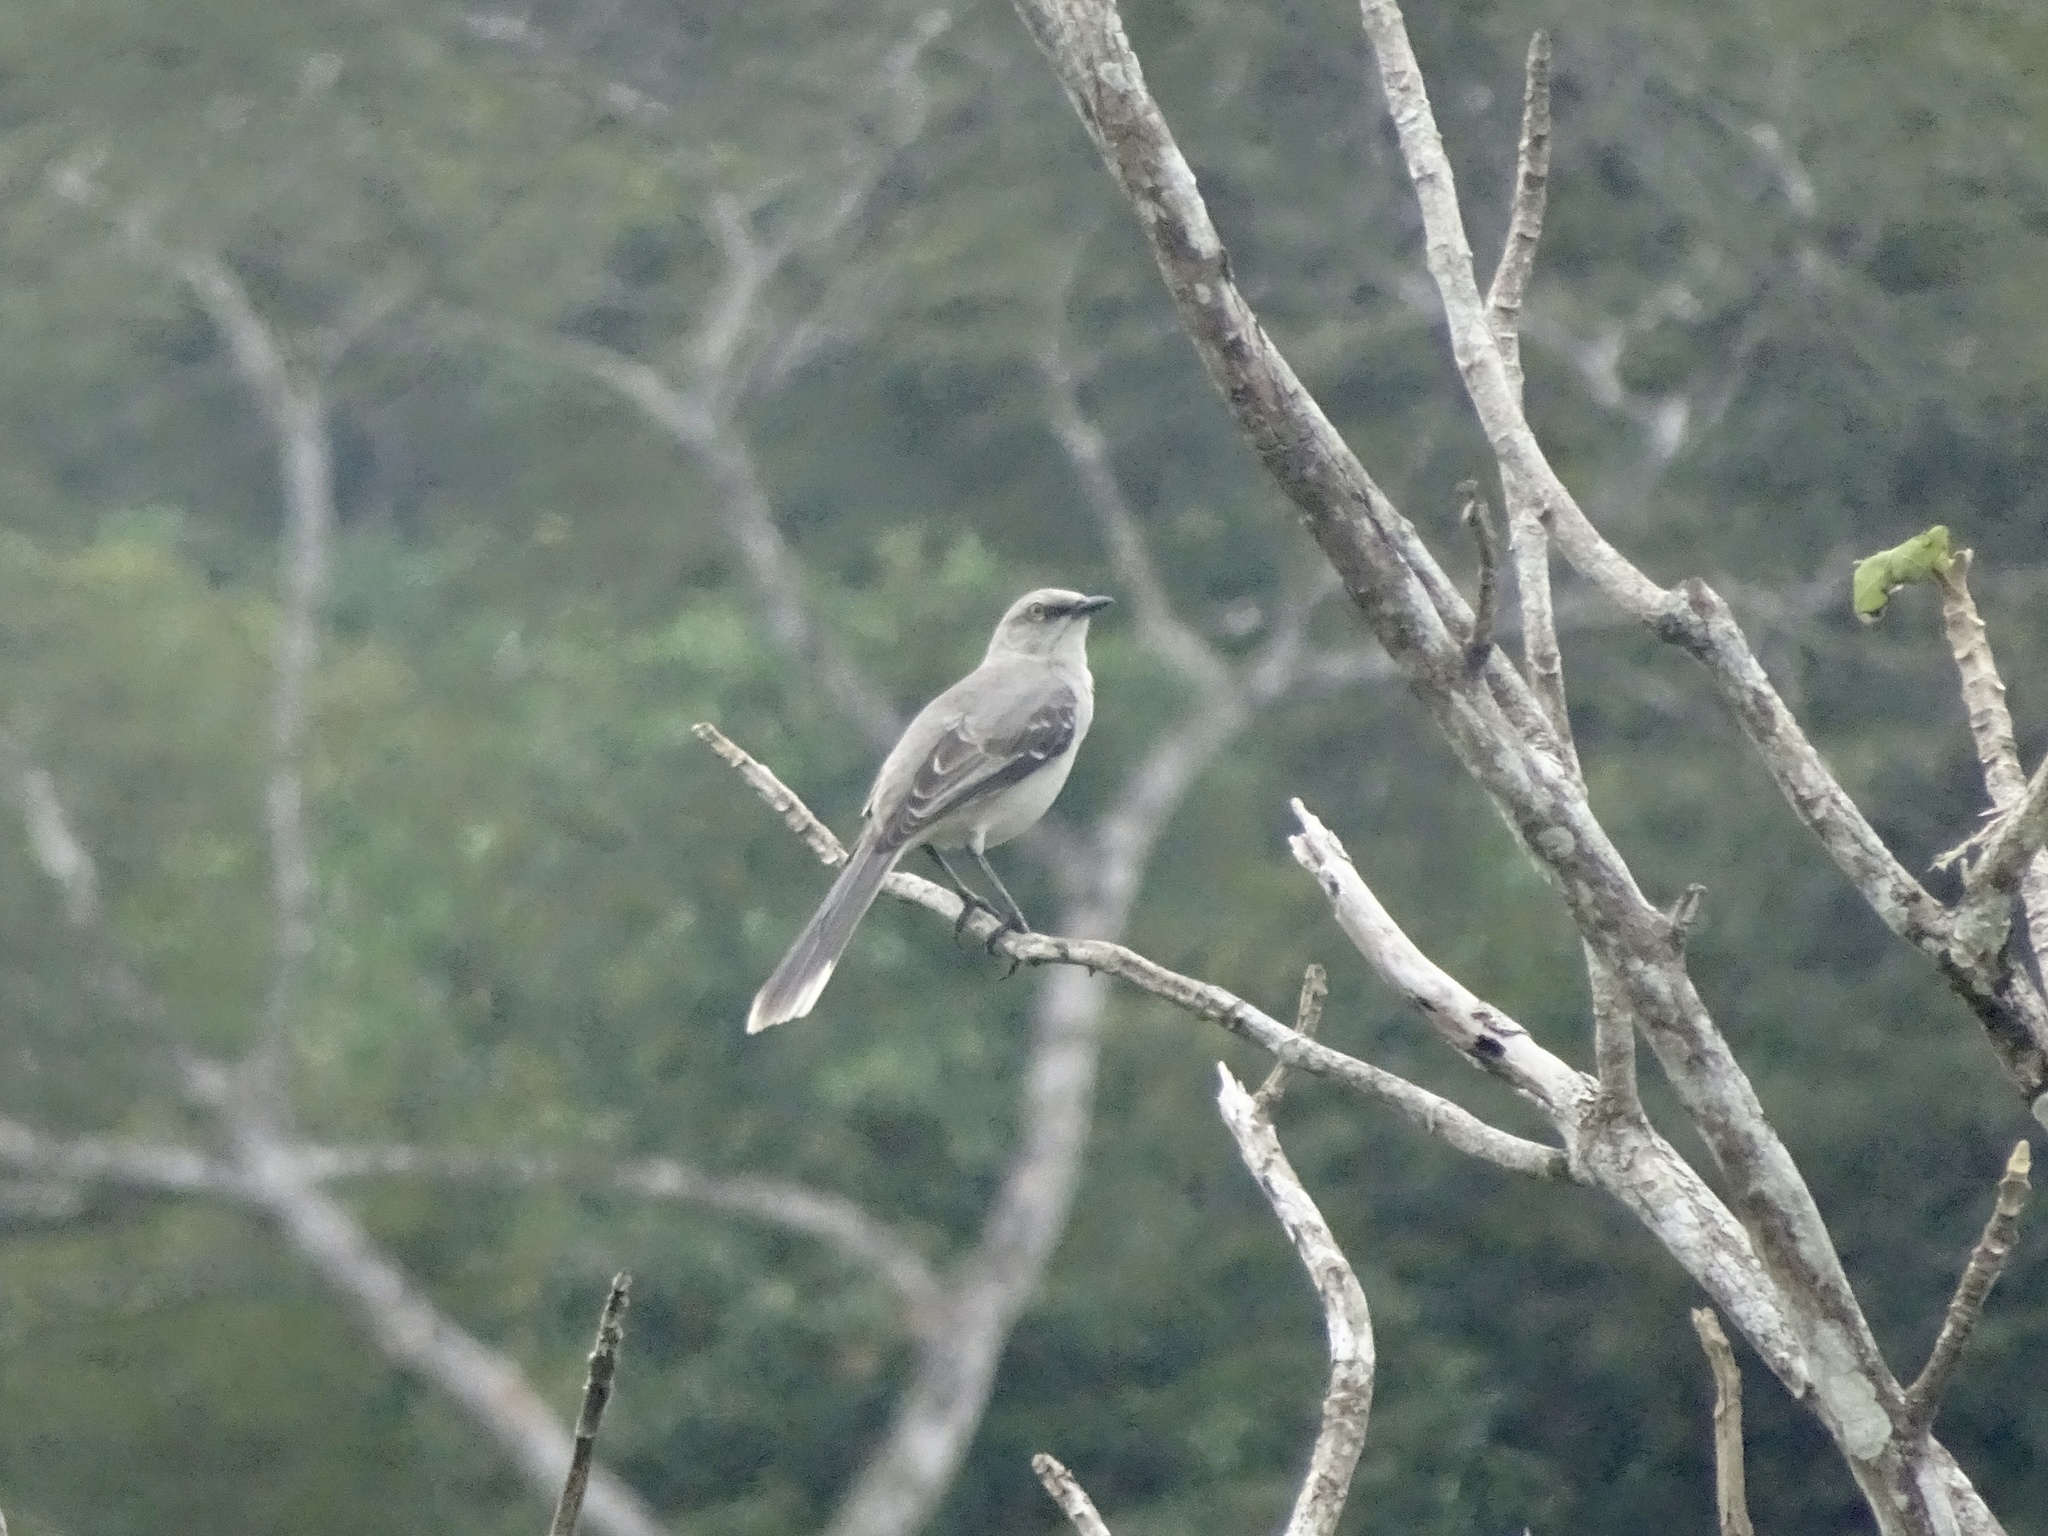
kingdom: Animalia
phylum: Chordata
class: Aves
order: Passeriformes
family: Mimidae
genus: Mimus
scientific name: Mimus gilvus
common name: Tropical mockingbird
